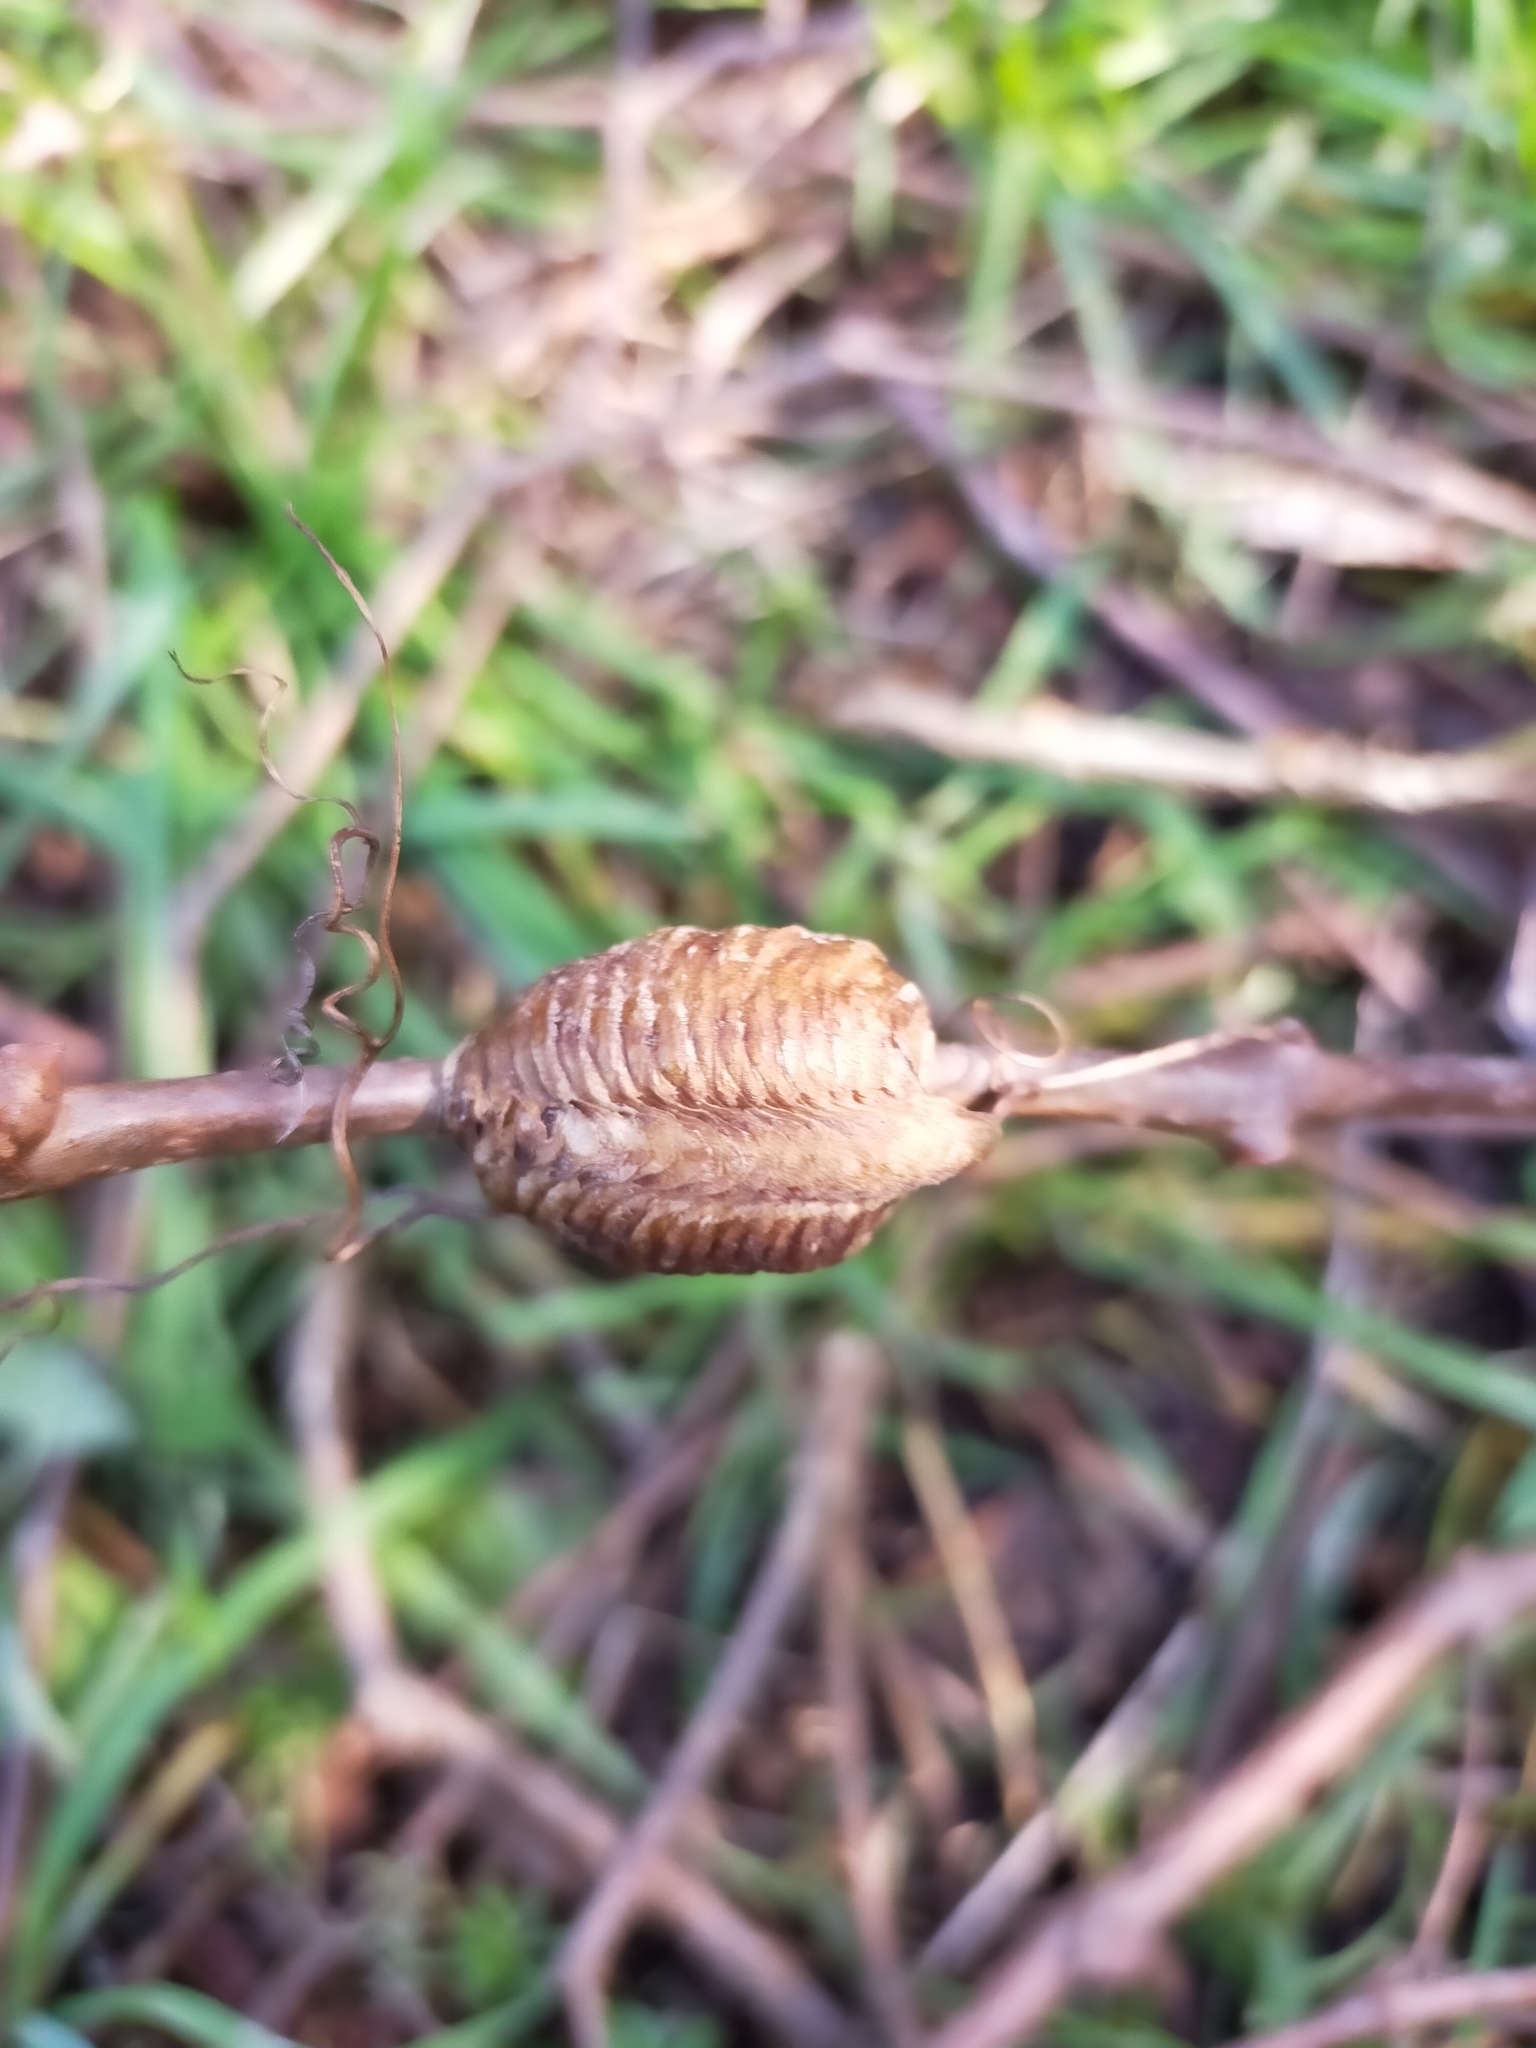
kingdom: Animalia
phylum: Arthropoda
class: Insecta
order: Mantodea
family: Mantidae
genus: Hierodula
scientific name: Hierodula transcaucasica
